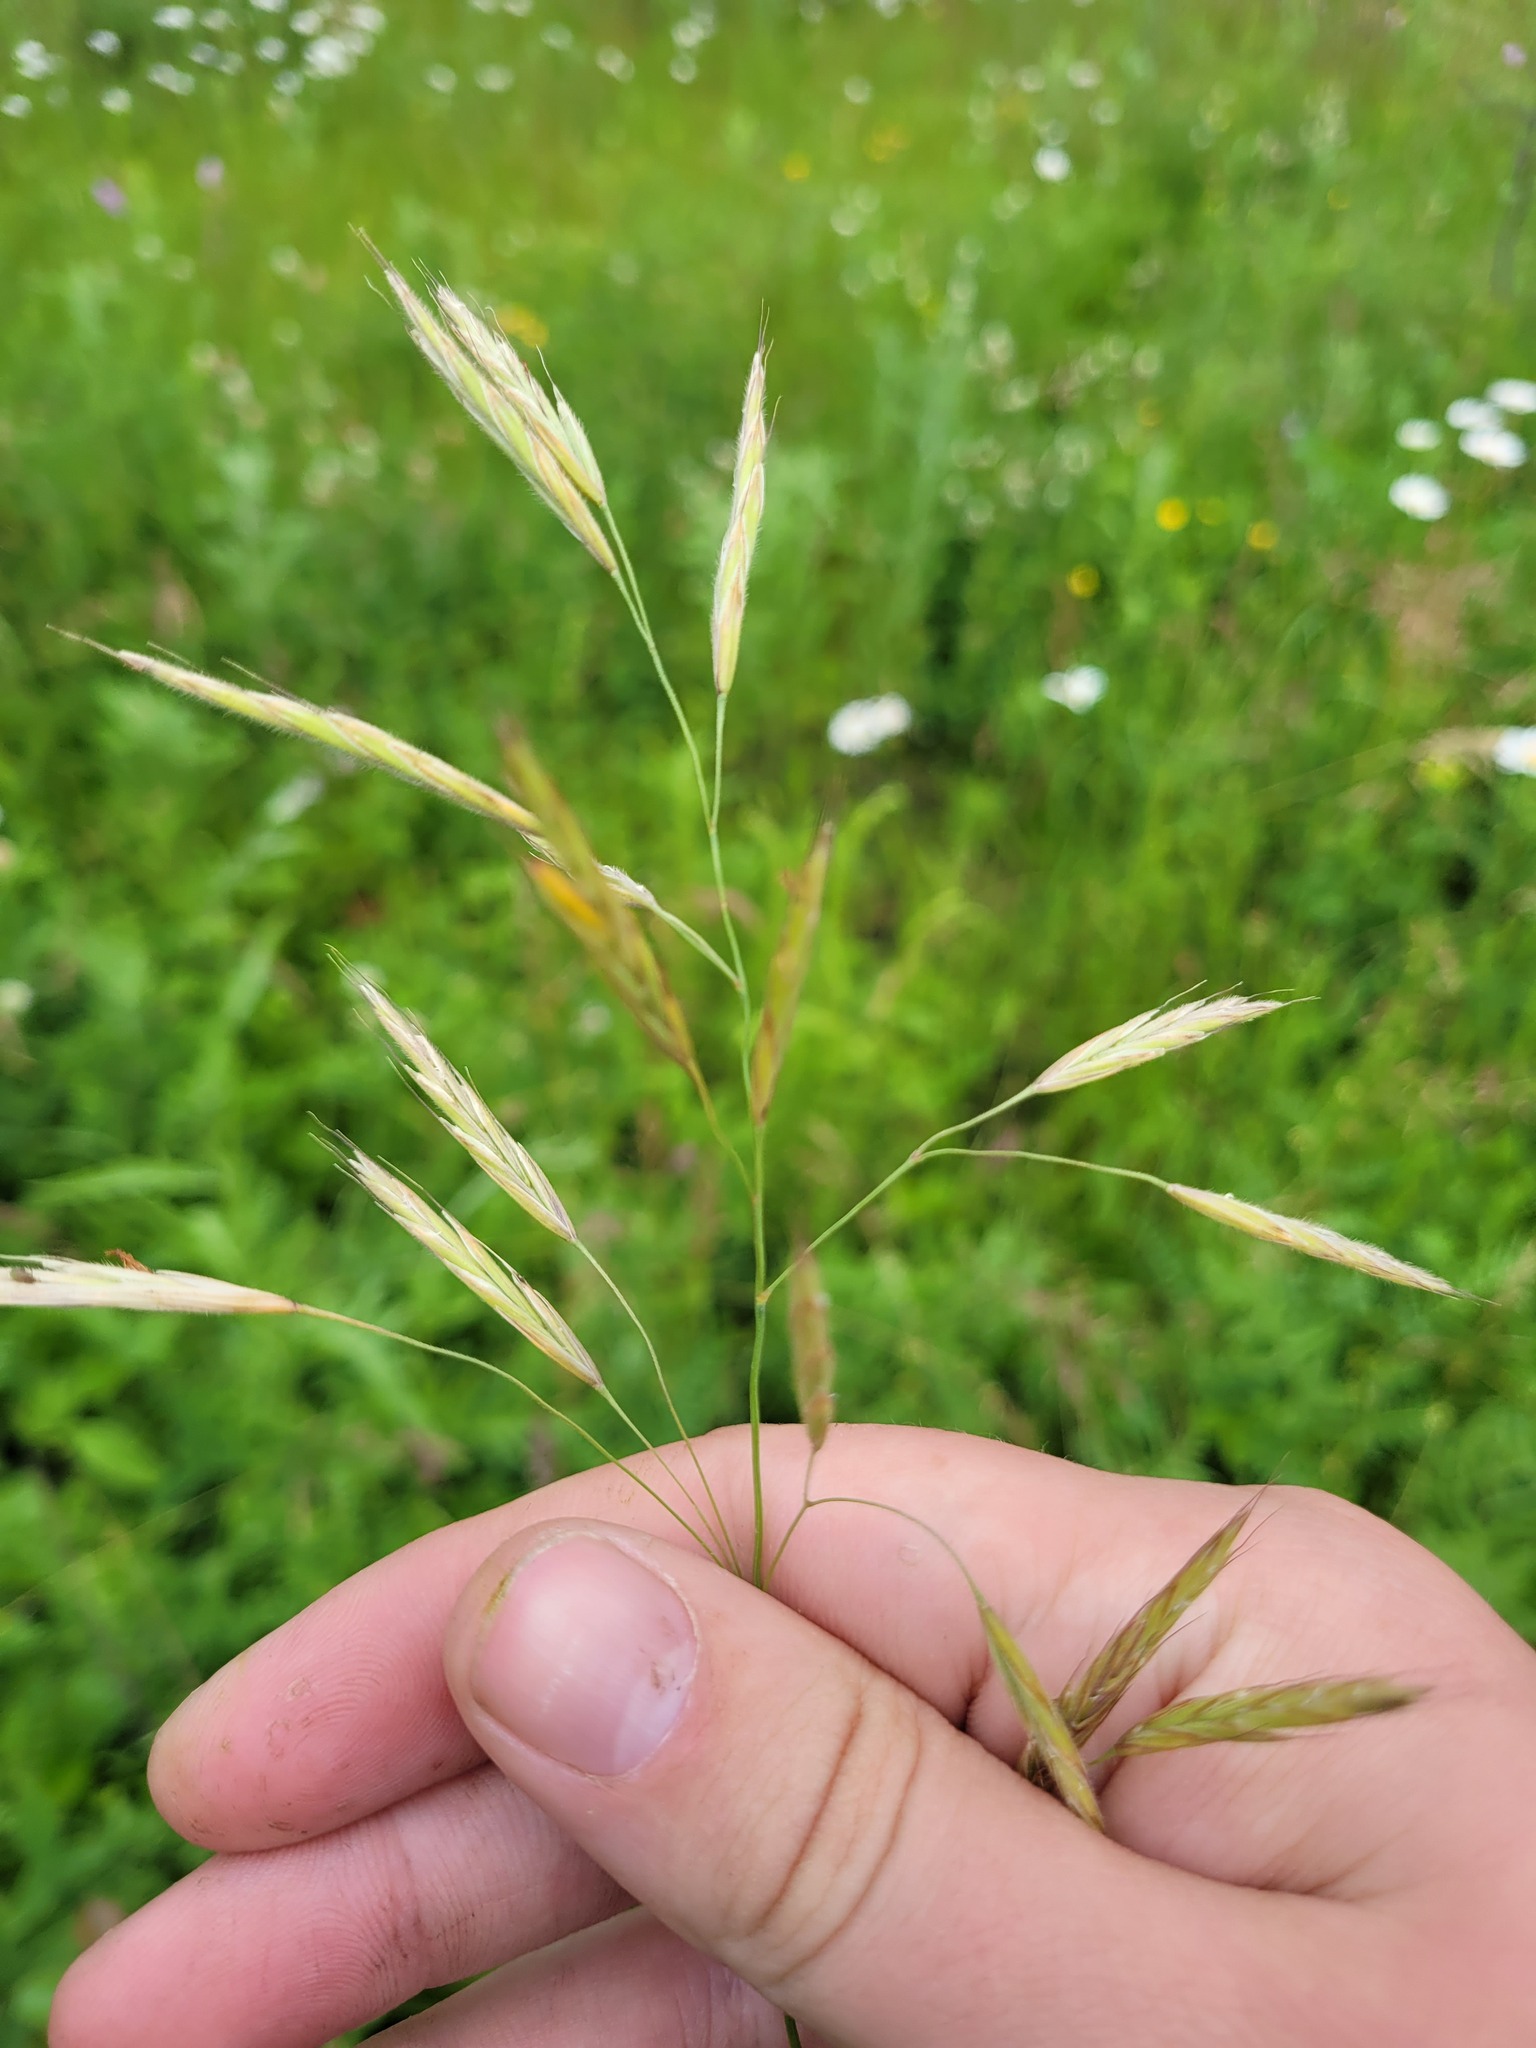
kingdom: Plantae
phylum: Tracheophyta
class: Liliopsida
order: Poales
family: Poaceae
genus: Bromus
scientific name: Bromus riparius
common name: Meadow brome
